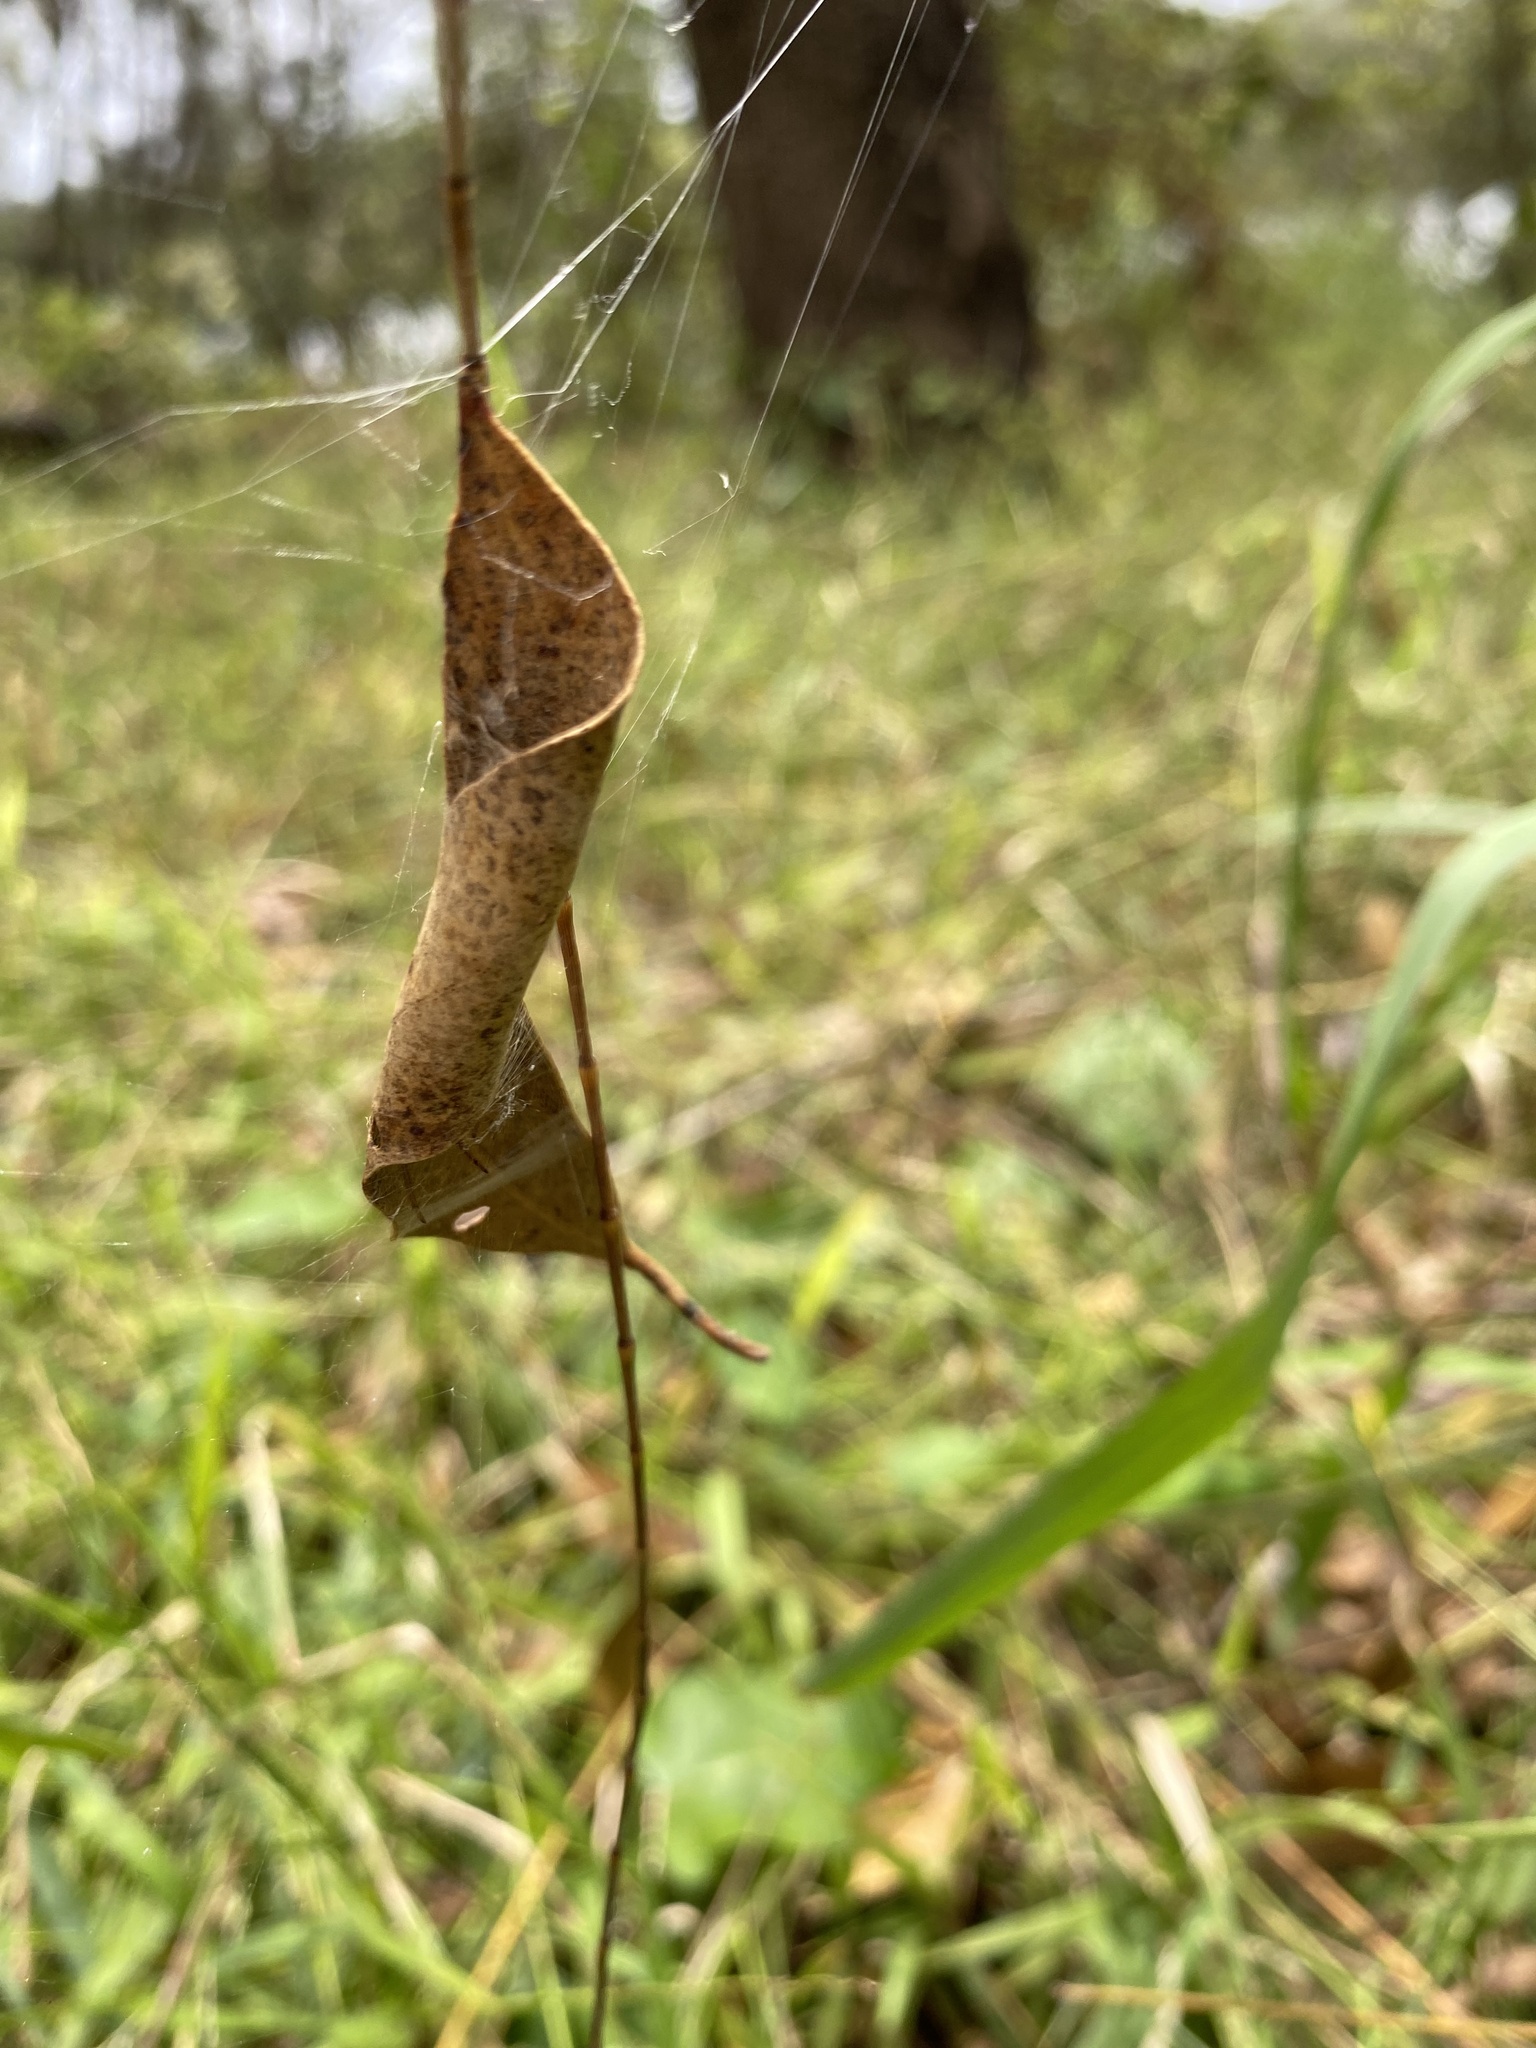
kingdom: Animalia
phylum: Arthropoda
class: Arachnida
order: Araneae
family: Araneidae
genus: Phonognatha
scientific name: Phonognatha graeffei
